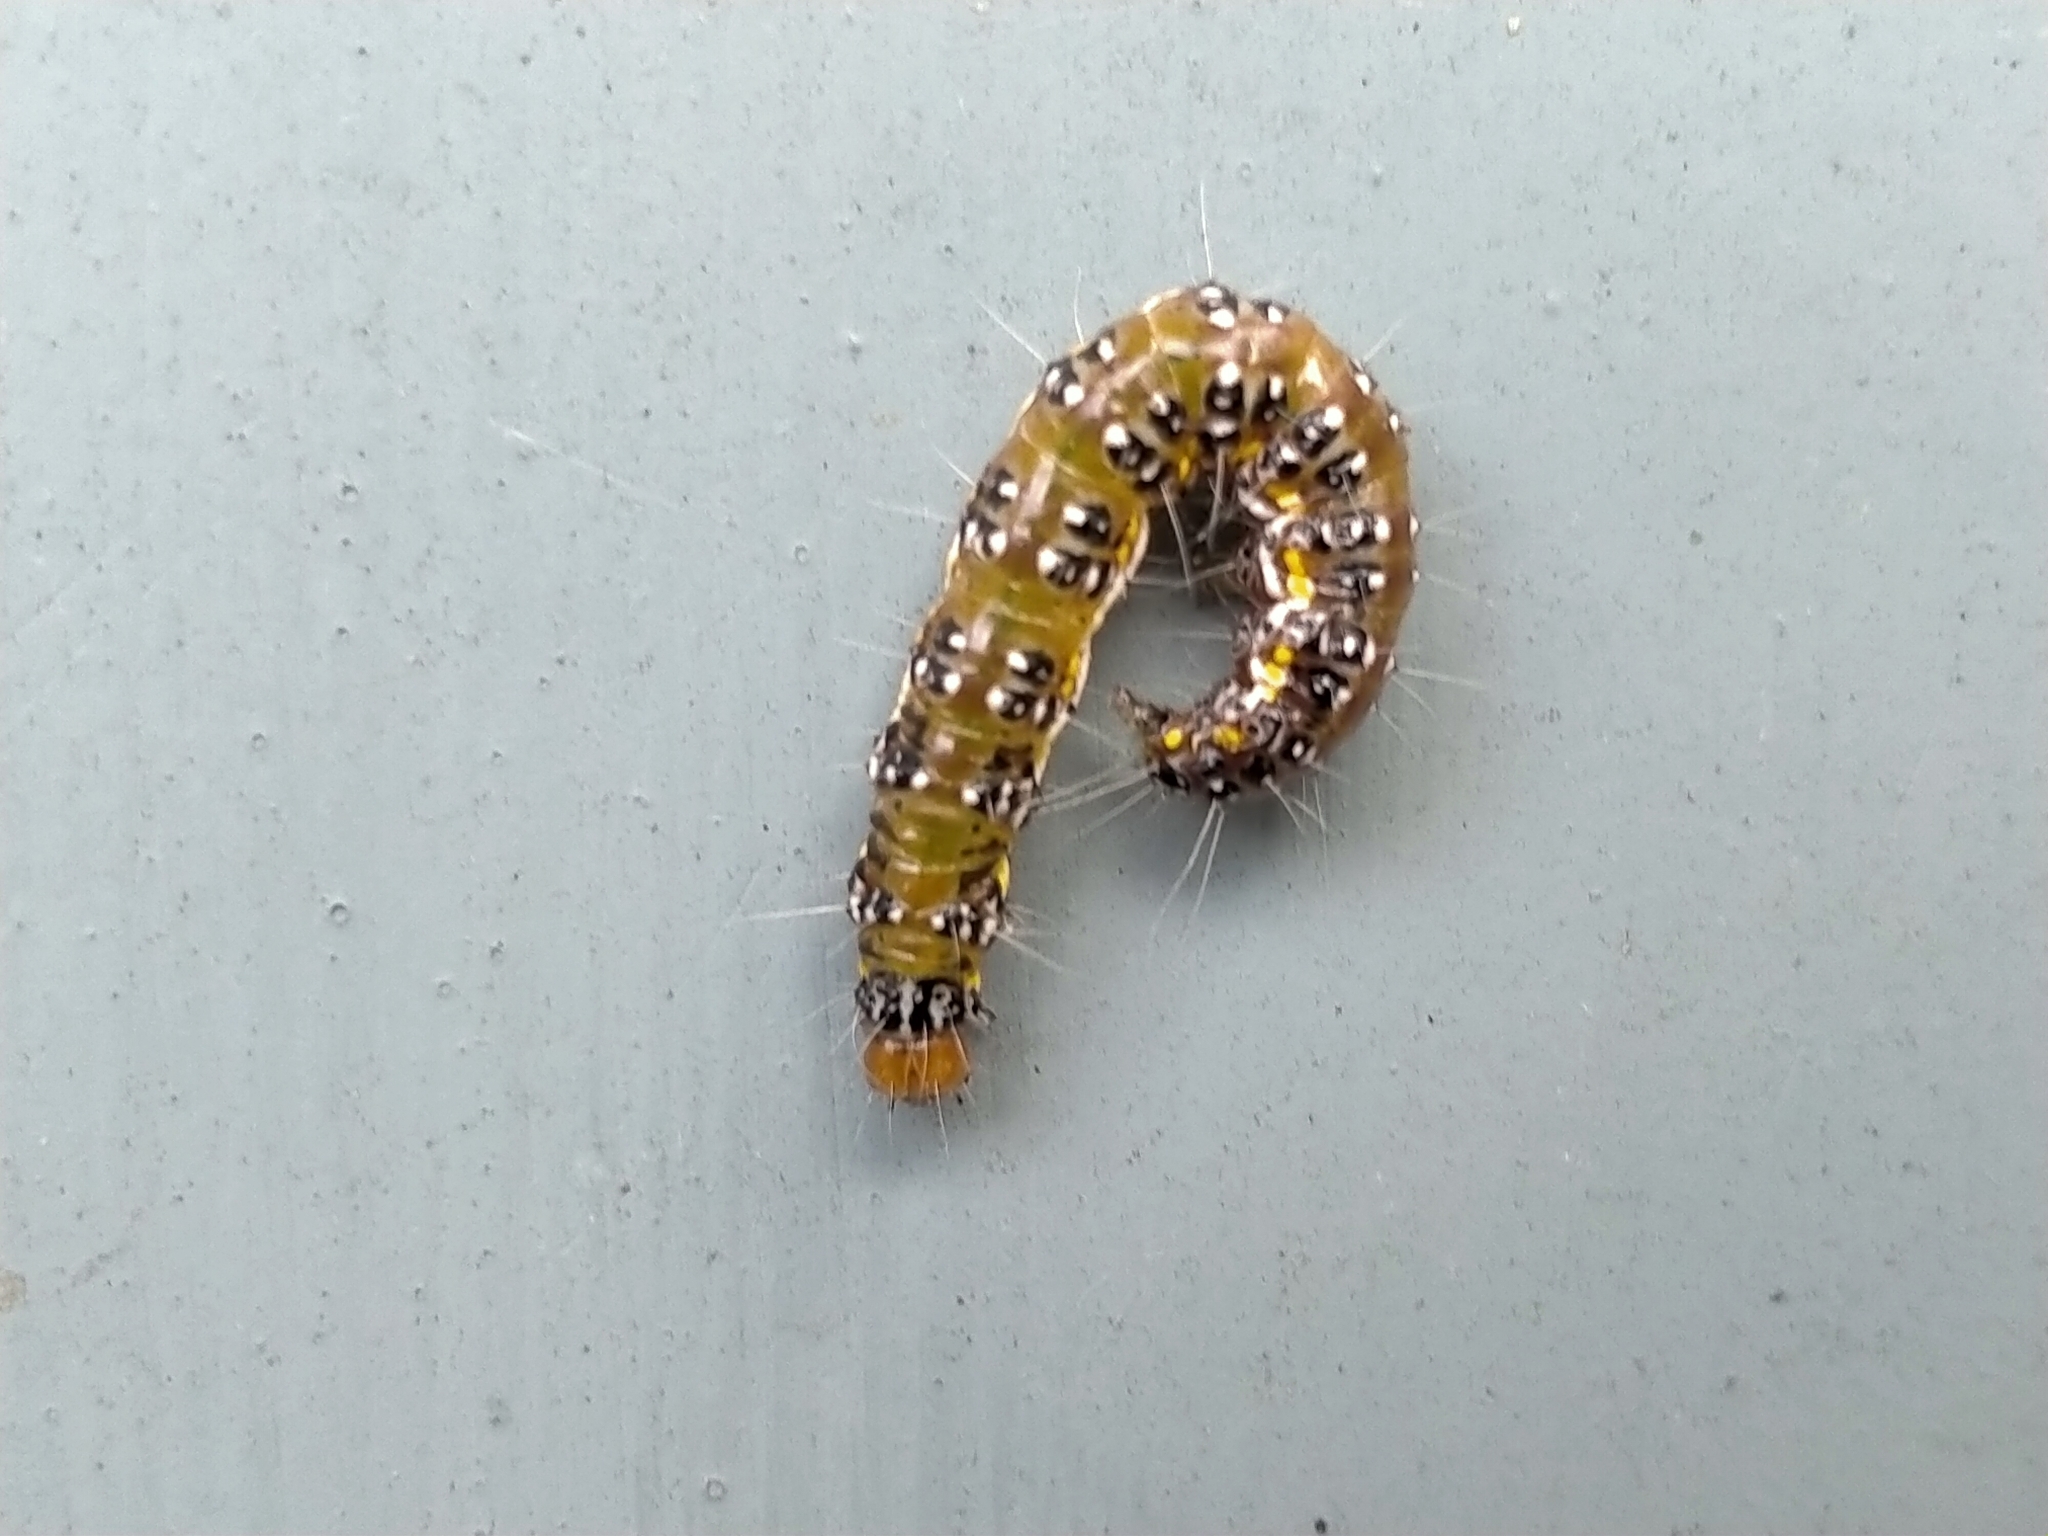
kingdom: Animalia
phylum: Arthropoda
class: Insecta
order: Lepidoptera
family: Crambidae
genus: Uresiphita
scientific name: Uresiphita
